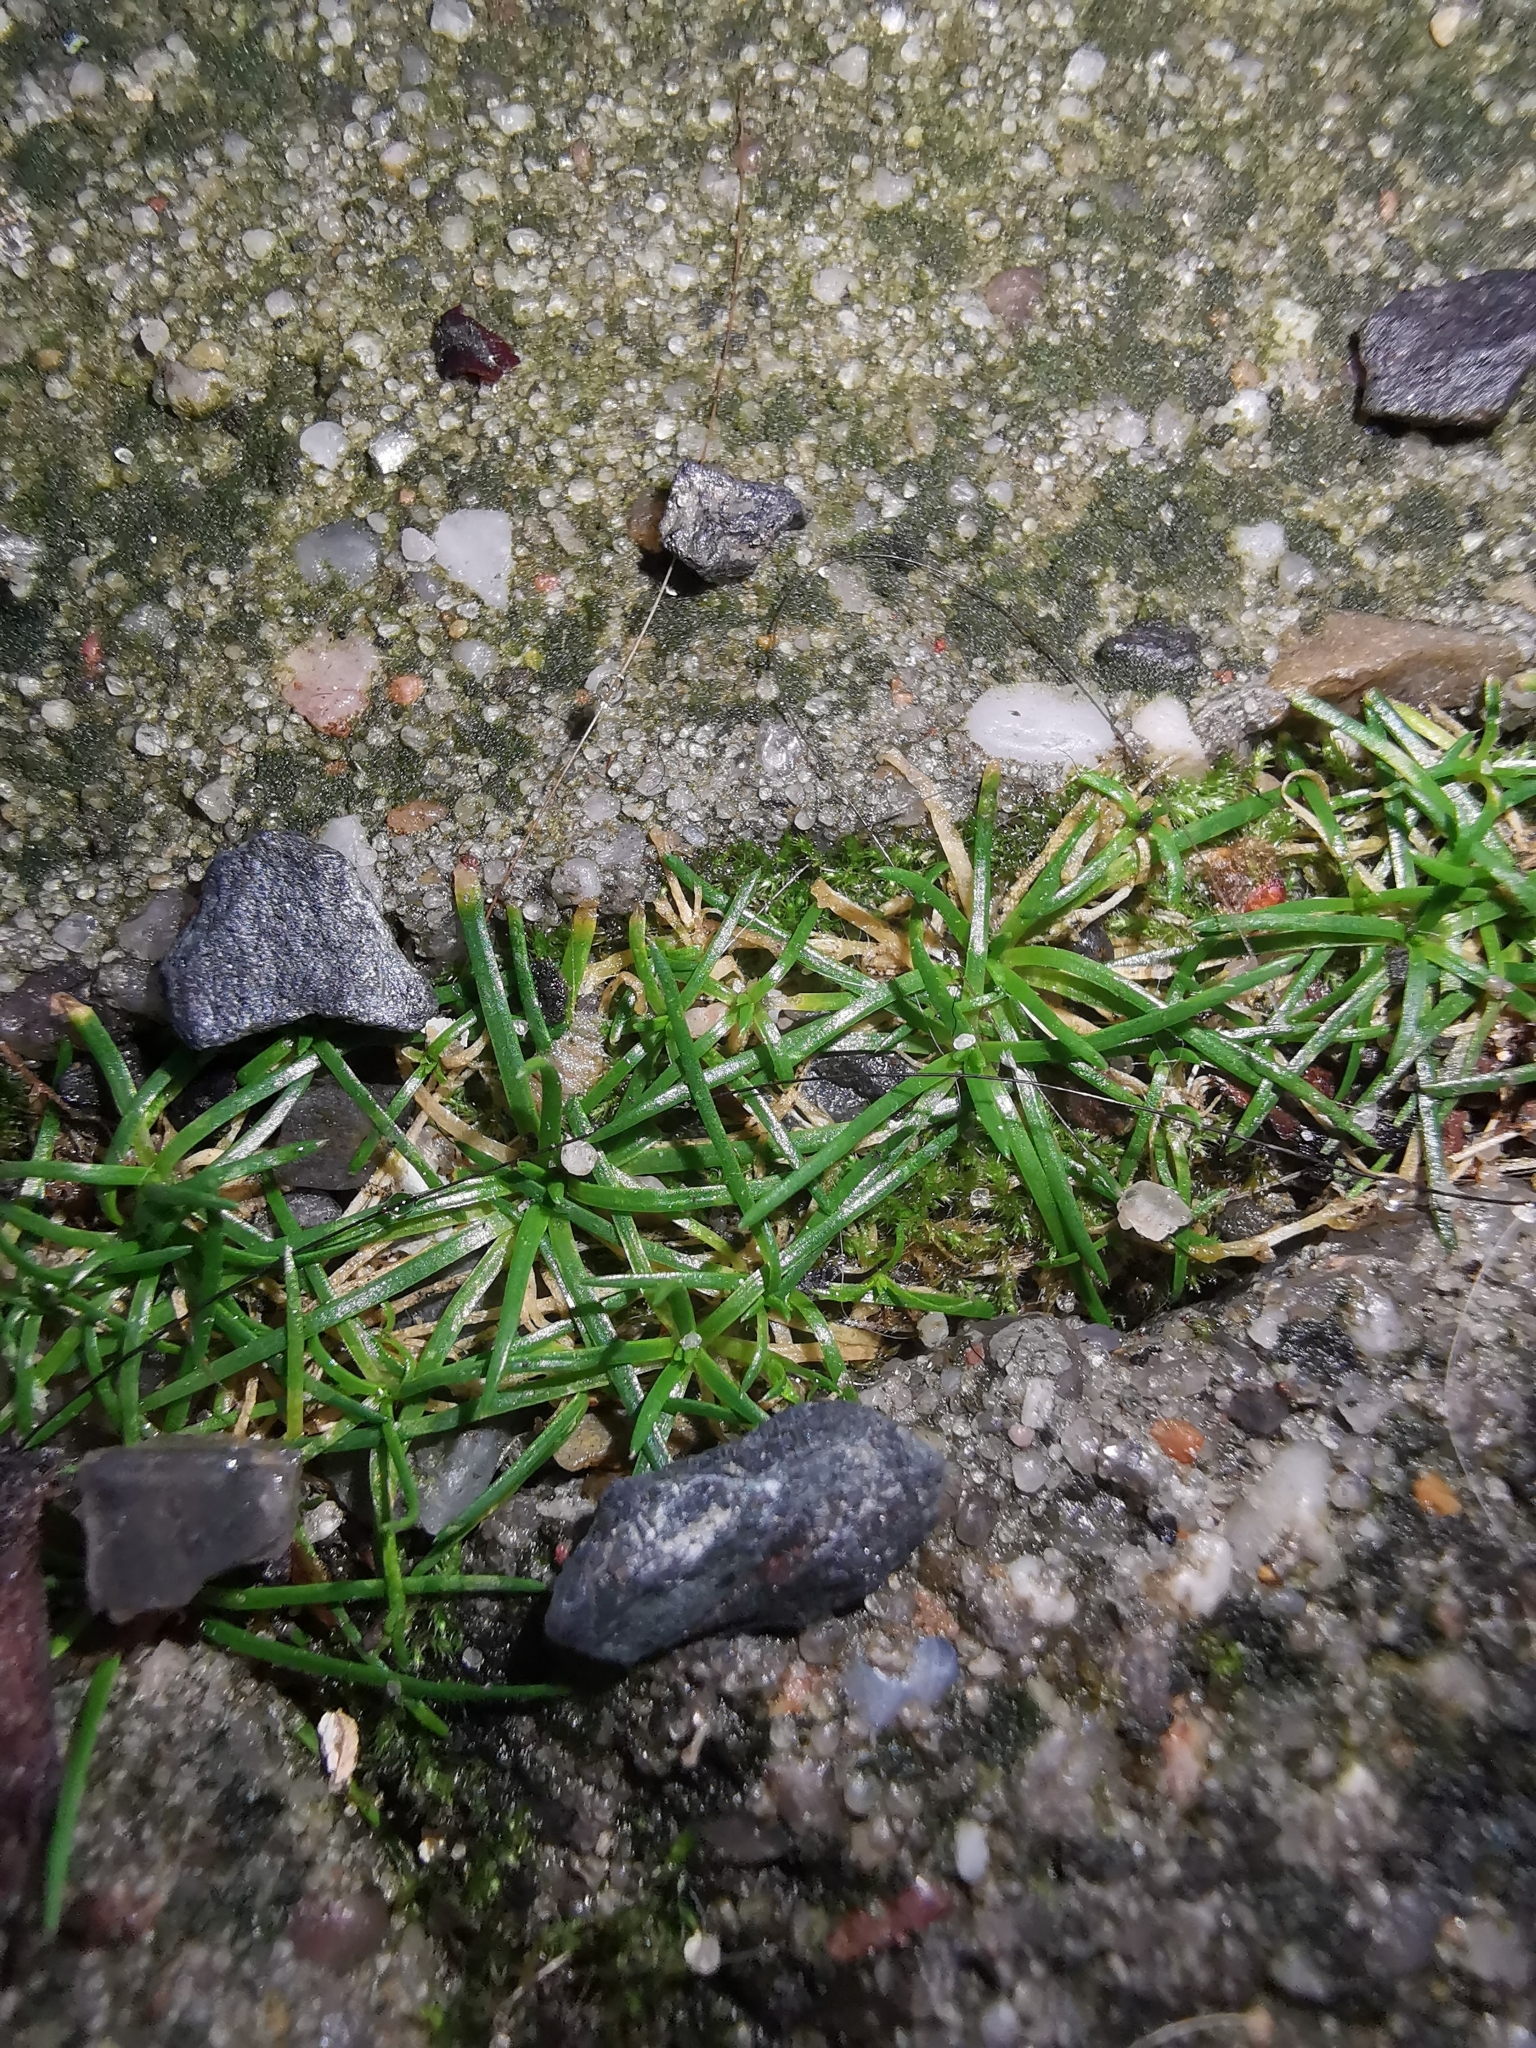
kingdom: Plantae
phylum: Tracheophyta
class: Magnoliopsida
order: Caryophyllales
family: Caryophyllaceae
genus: Sagina
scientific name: Sagina procumbens
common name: Procumbent pearlwort
